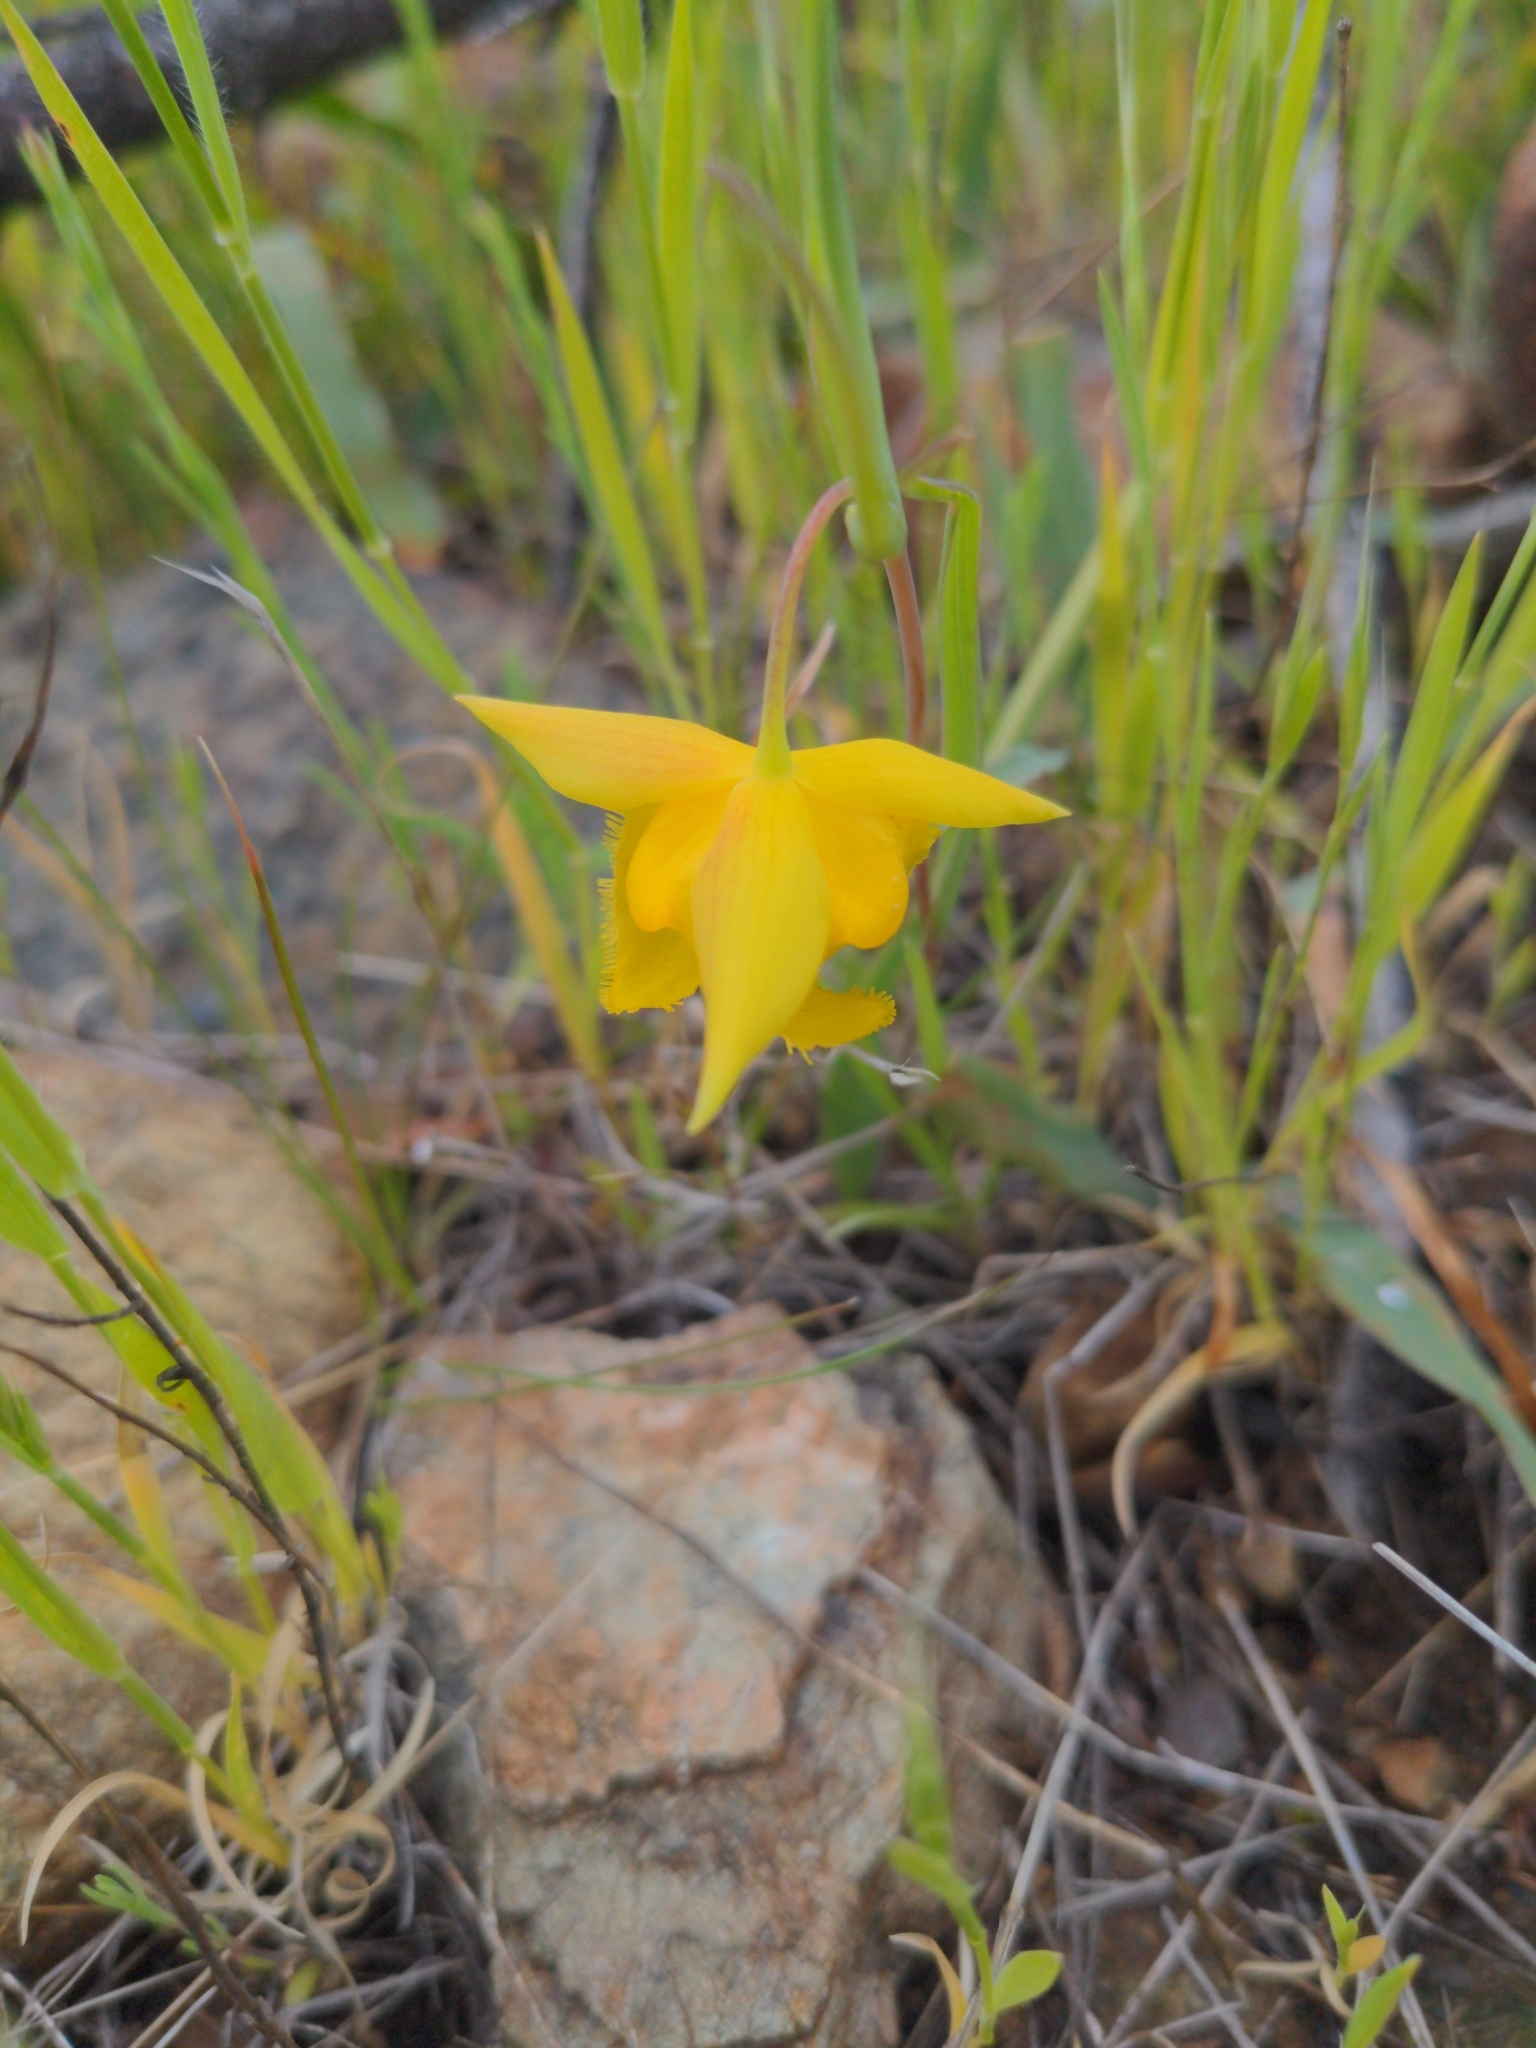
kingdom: Plantae
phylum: Tracheophyta
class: Liliopsida
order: Liliales
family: Liliaceae
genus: Calochortus
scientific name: Calochortus amabilis
